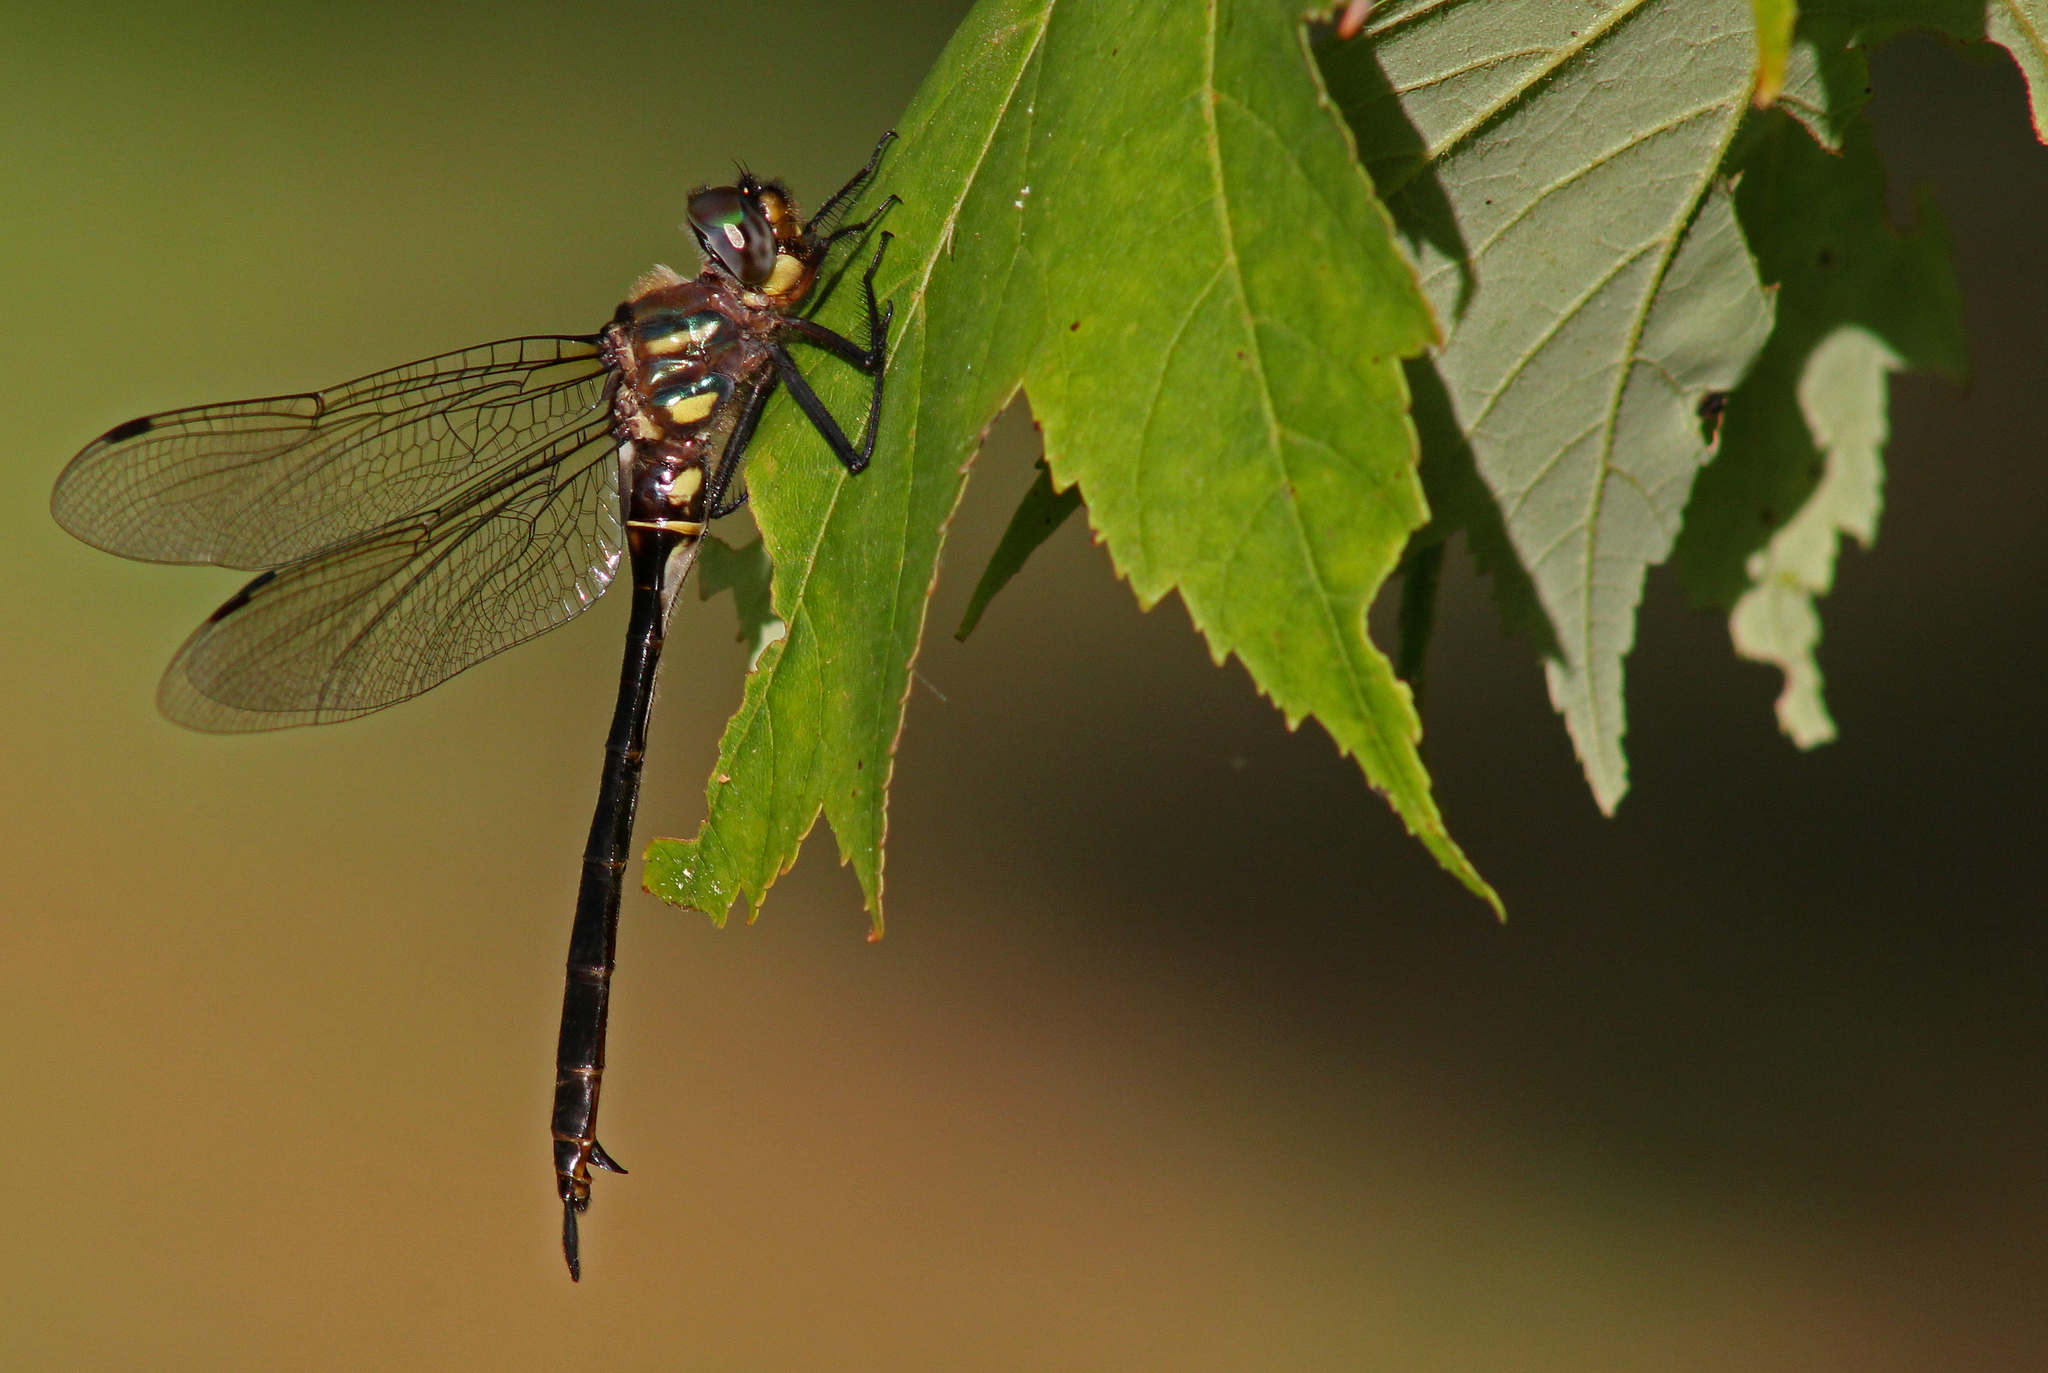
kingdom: Animalia
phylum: Arthropoda
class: Insecta
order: Odonata
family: Corduliidae
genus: Somatochlora
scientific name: Somatochlora tenebrosa
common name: Clamp-tipped emerald
